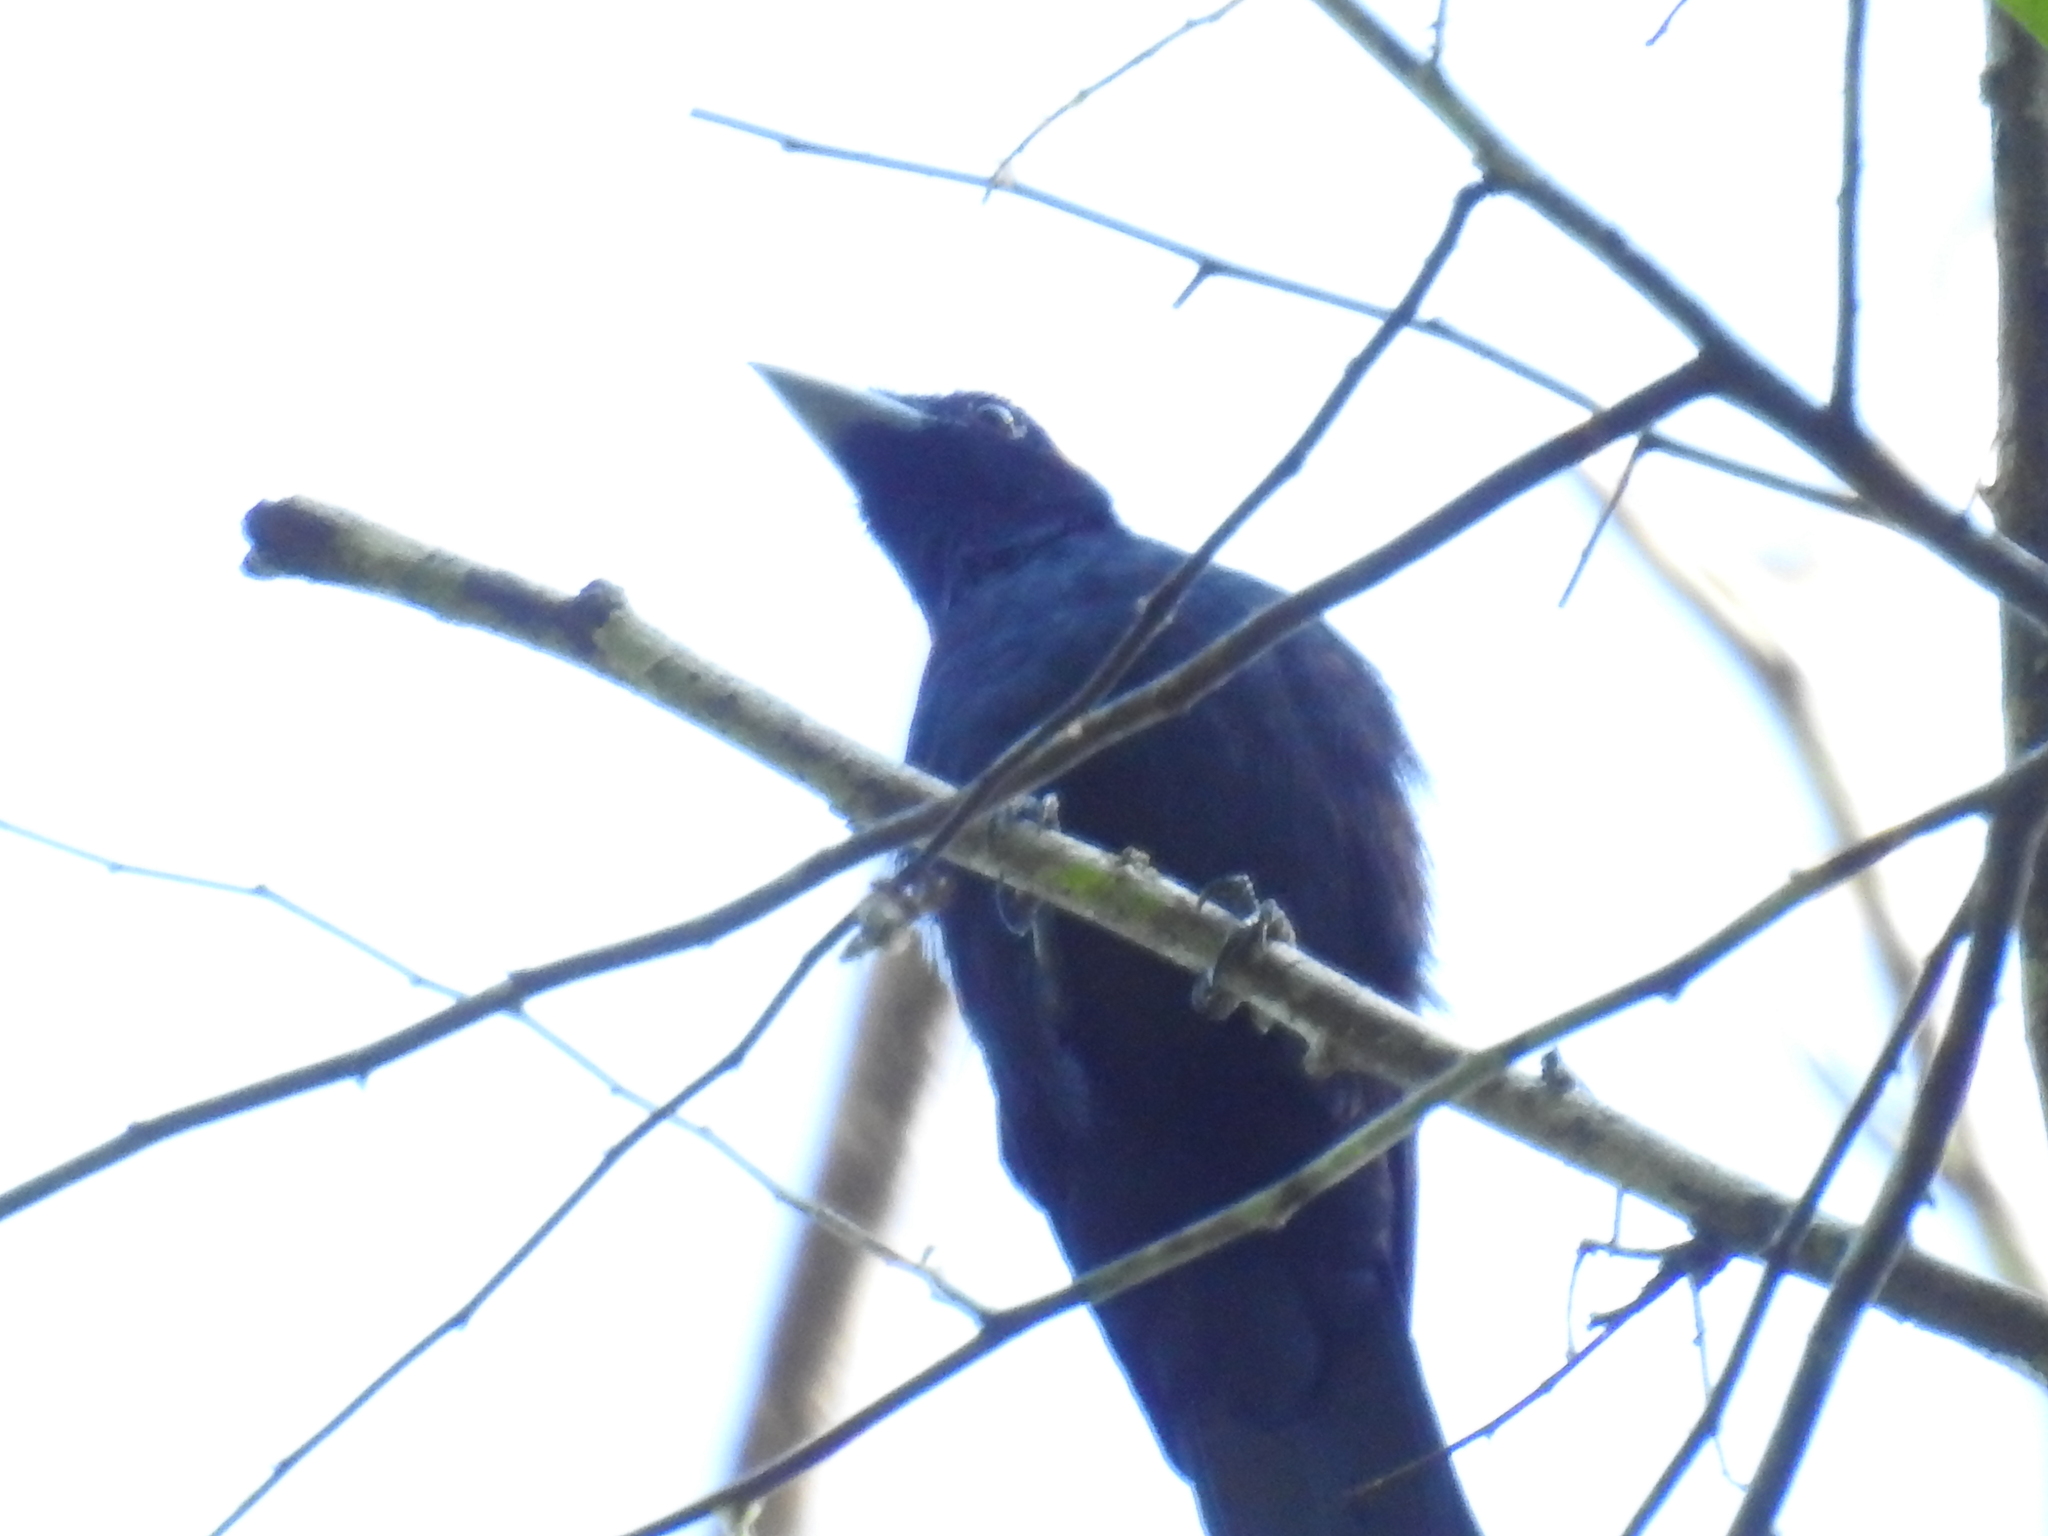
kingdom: Animalia
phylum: Chordata
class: Aves
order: Passeriformes
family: Cotingidae
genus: Querula
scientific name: Querula purpurata
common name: Purple-throated fruitcrow
